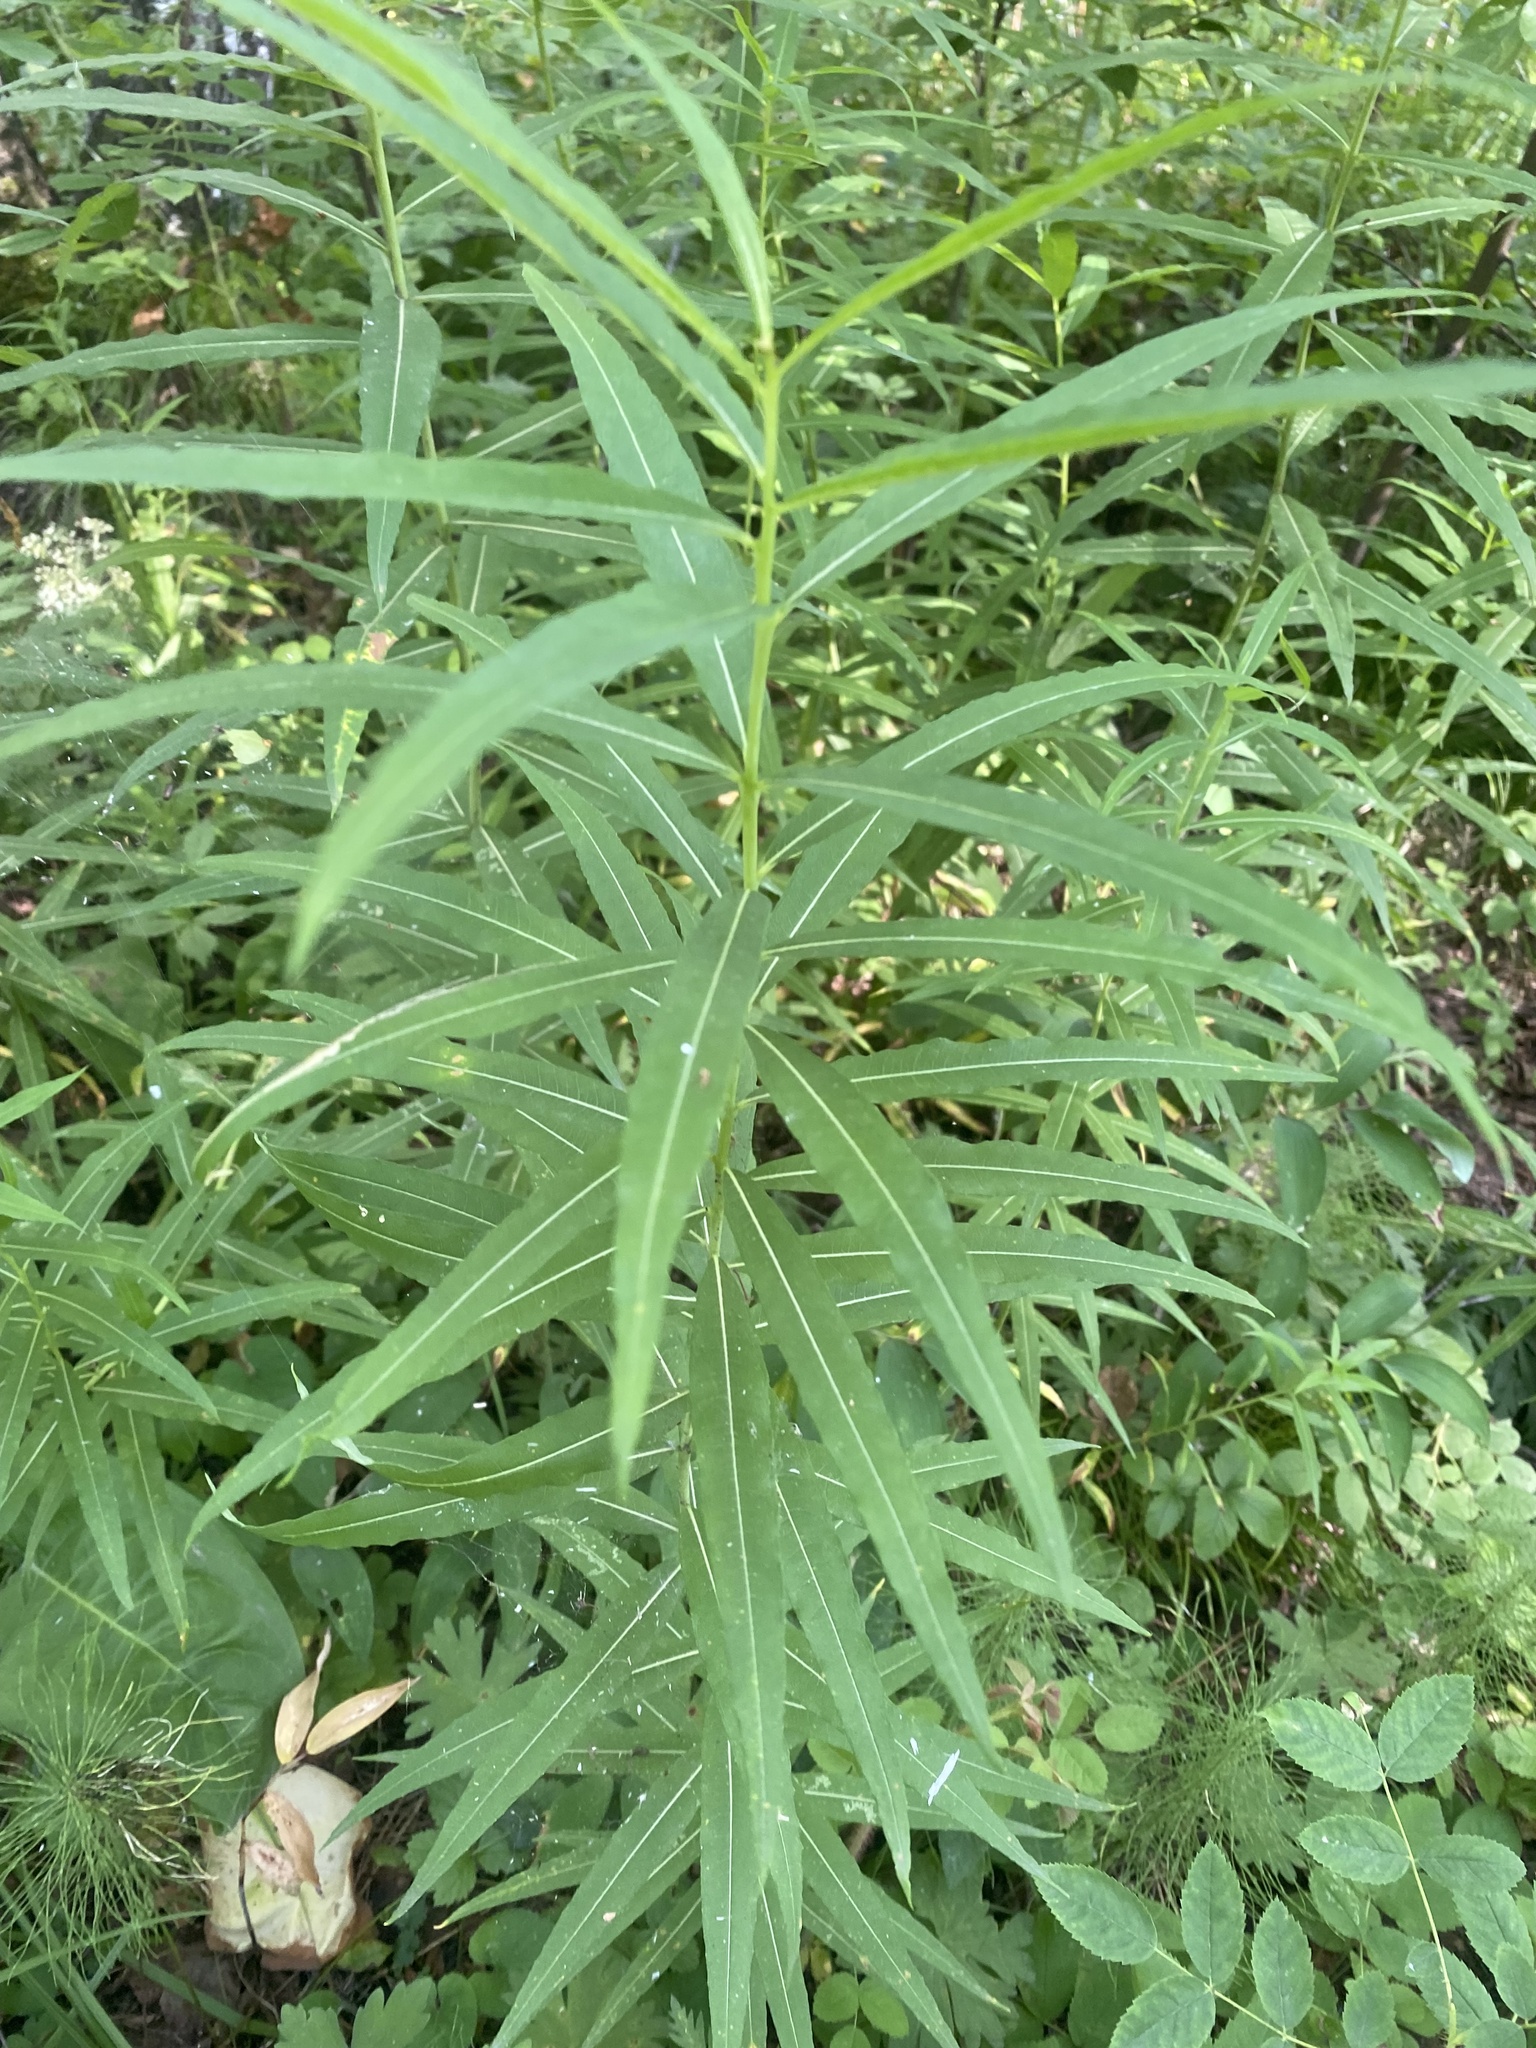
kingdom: Plantae
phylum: Tracheophyta
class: Magnoliopsida
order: Myrtales
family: Onagraceae
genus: Chamaenerion
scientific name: Chamaenerion angustifolium
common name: Fireweed
